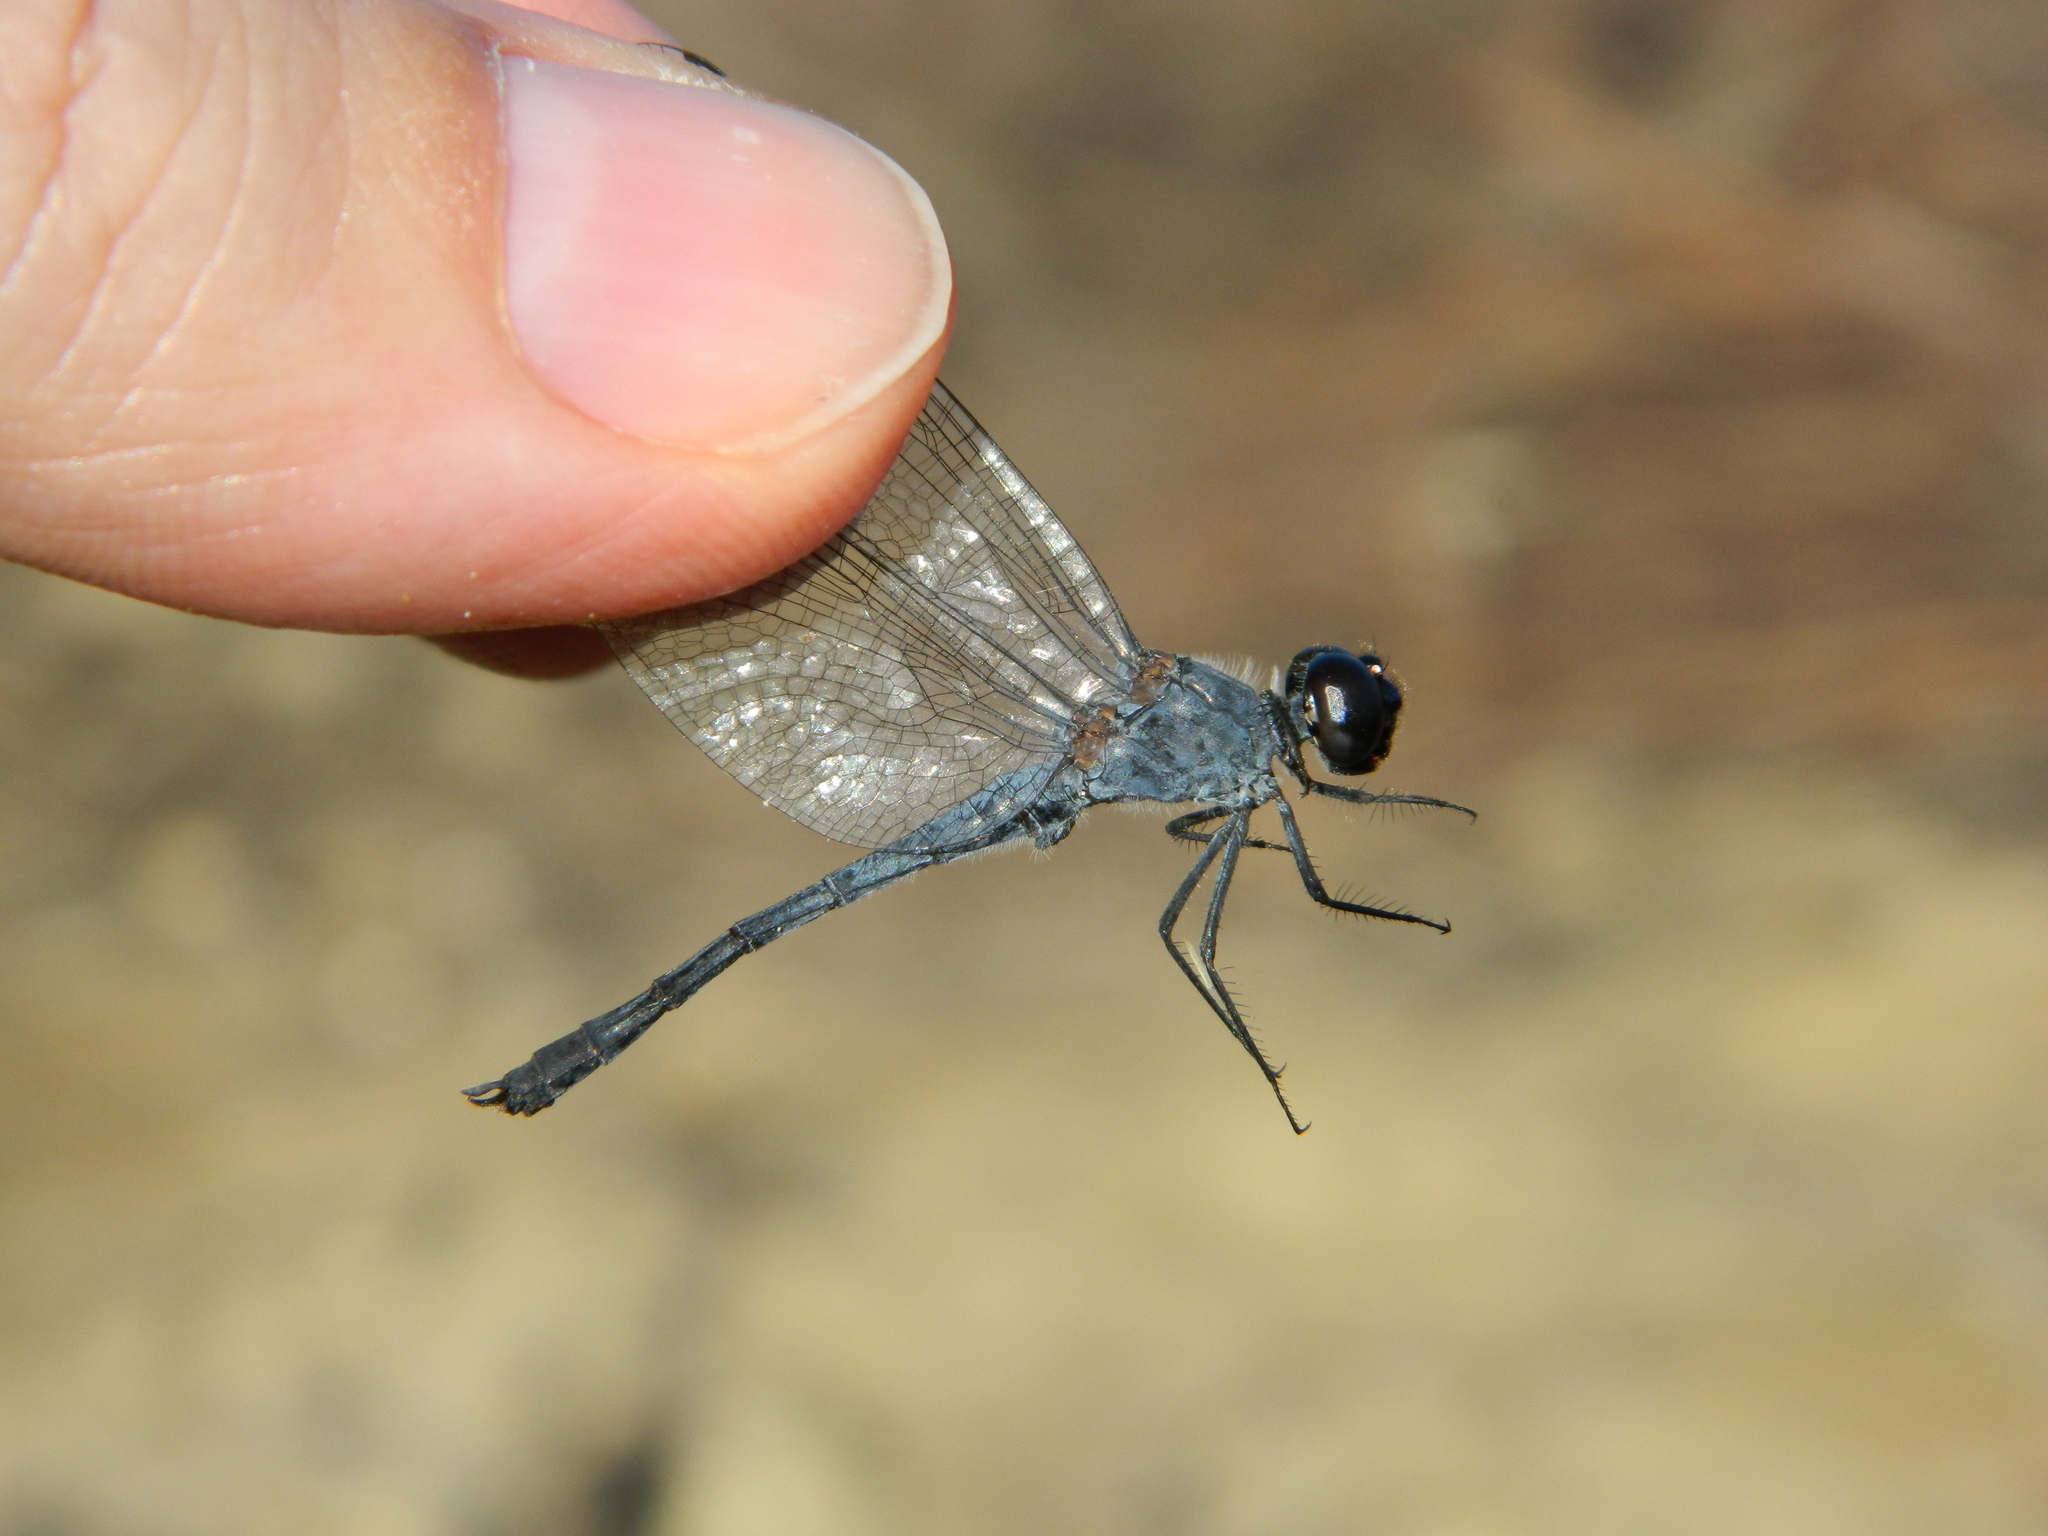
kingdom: Animalia
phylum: Arthropoda
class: Insecta
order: Odonata
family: Libellulidae
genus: Erythrodiplax
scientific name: Erythrodiplax berenice
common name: Seaside dragonlet
